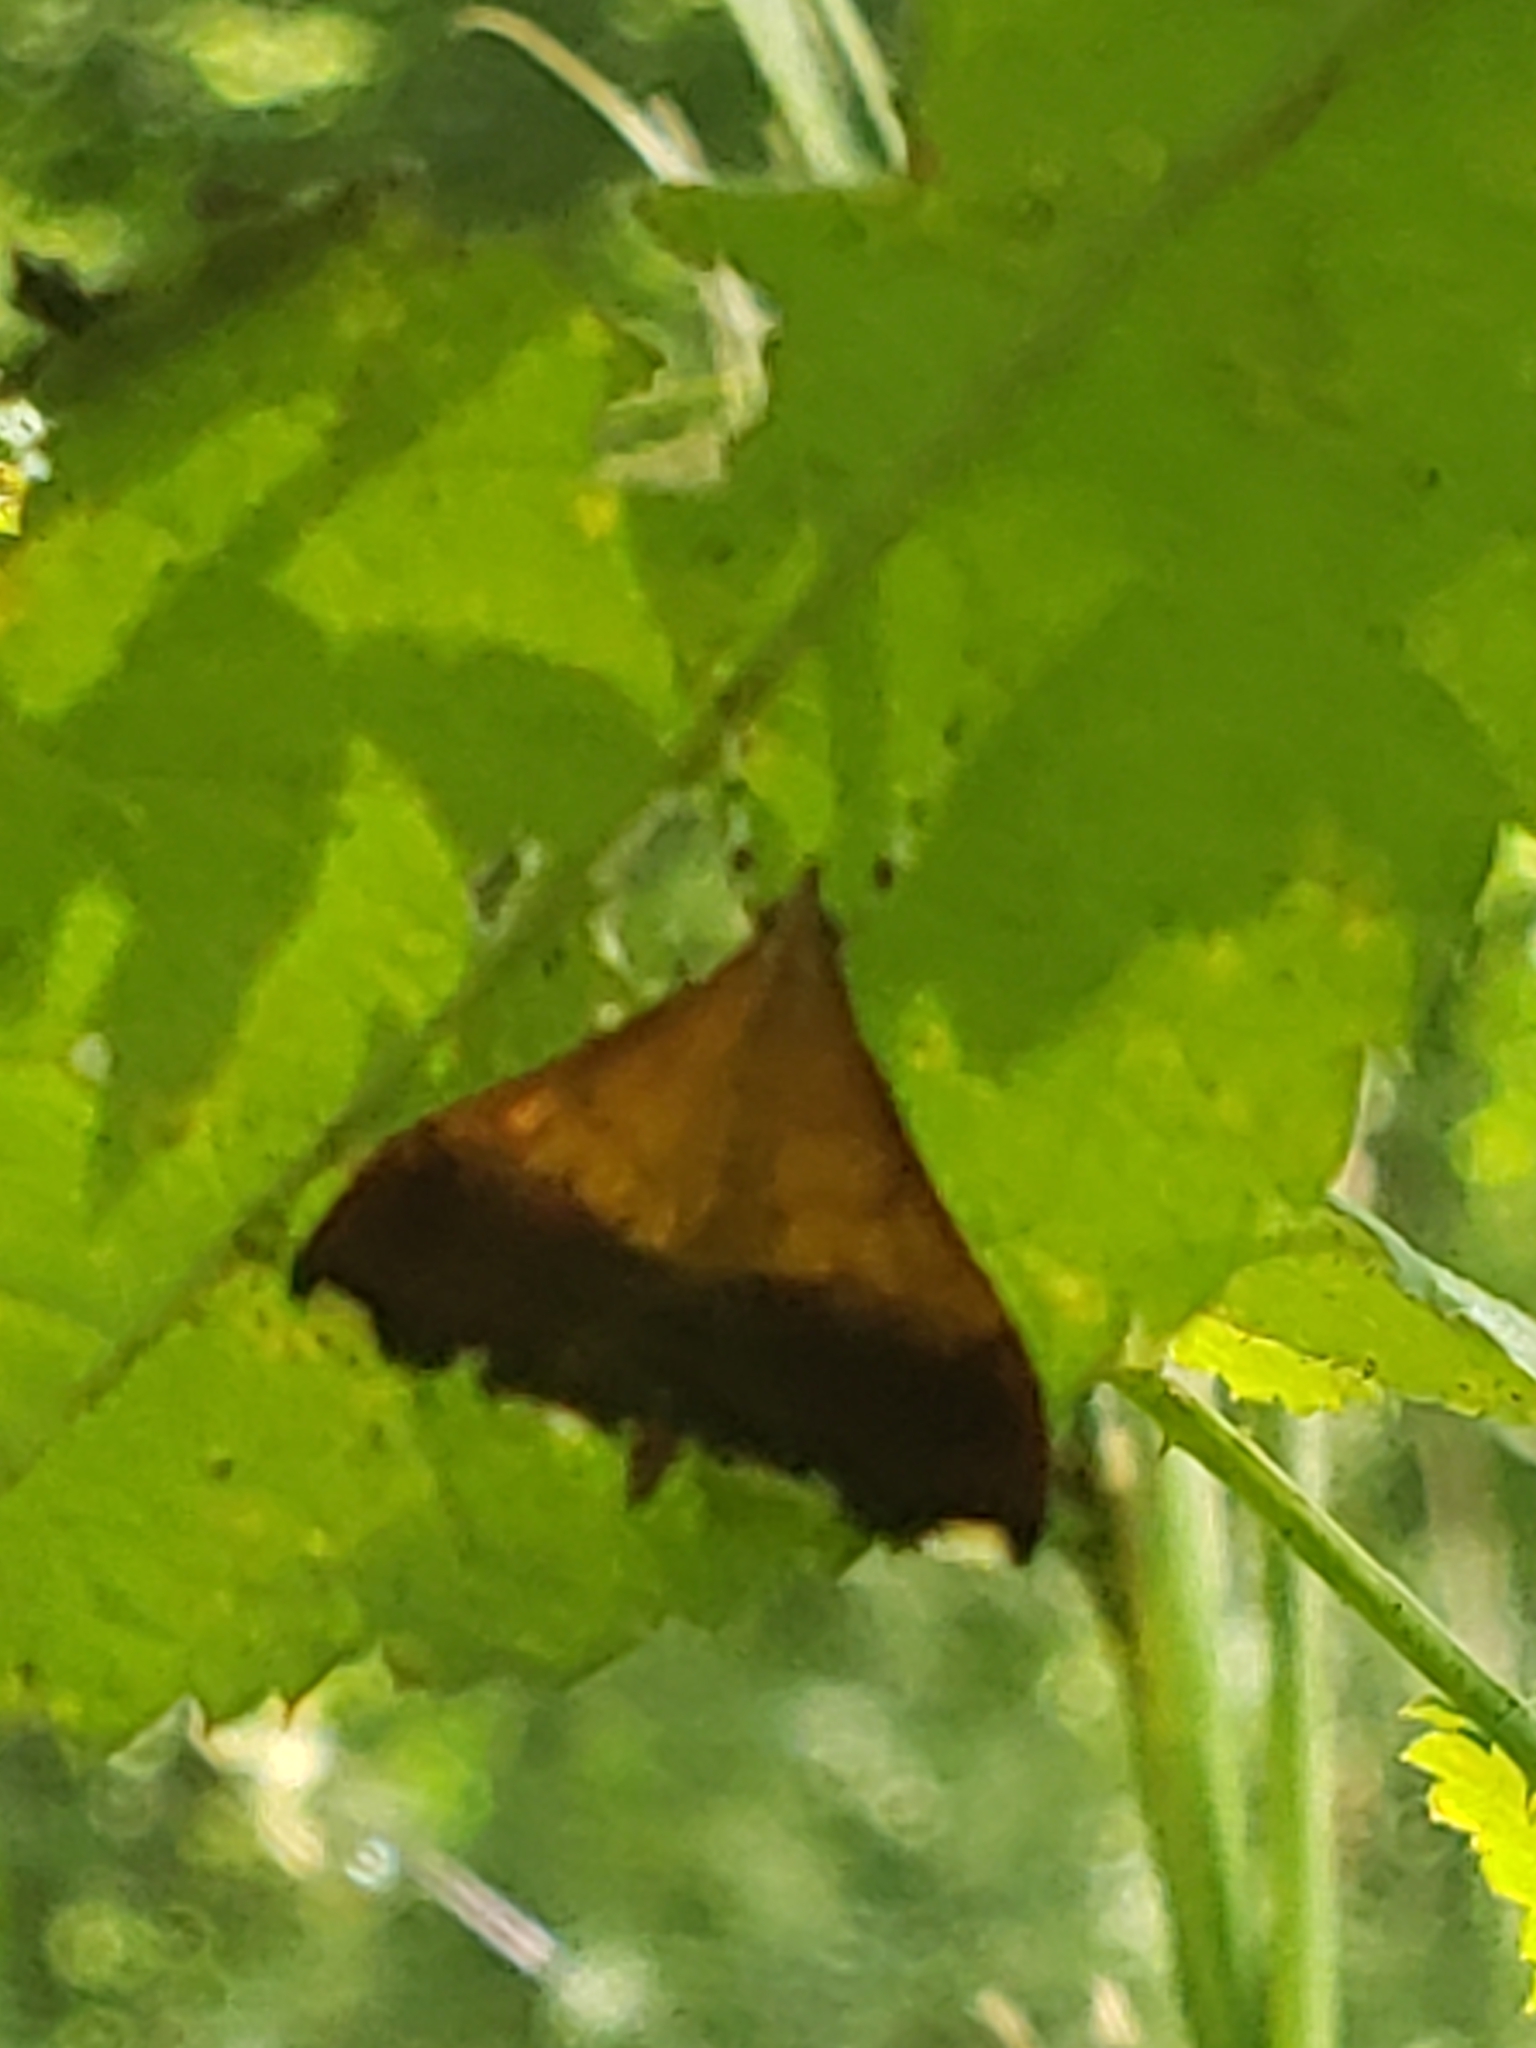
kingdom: Animalia
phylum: Arthropoda
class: Insecta
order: Lepidoptera
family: Crambidae
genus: Pyrausta
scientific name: Pyrausta bicoloralis
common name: Bicolored pyrausta moth
